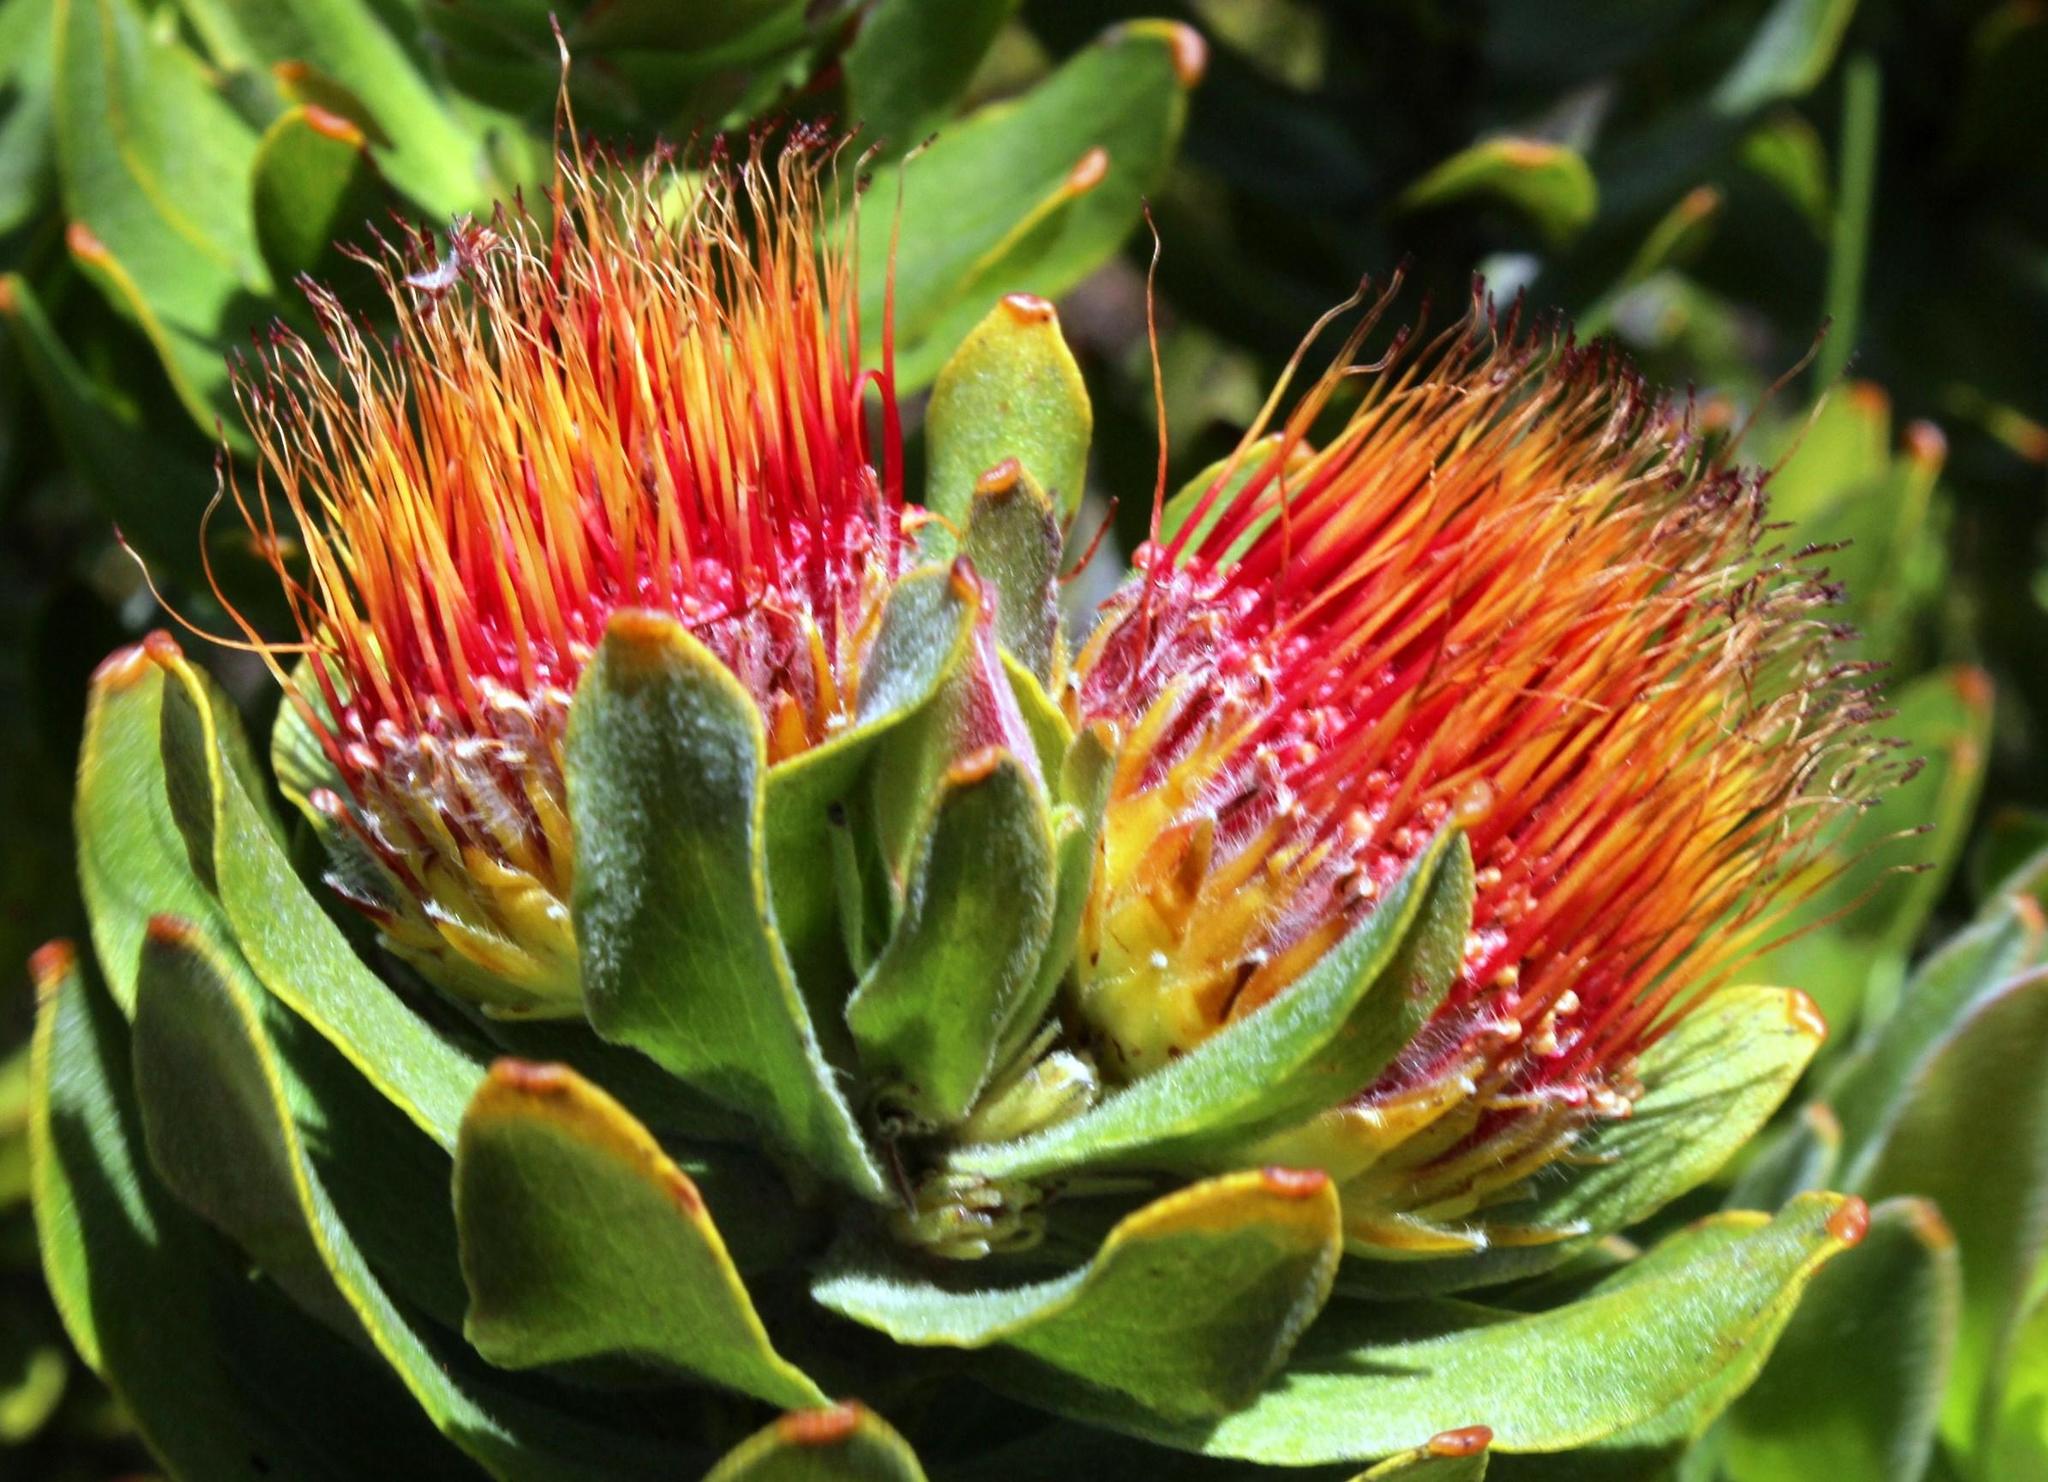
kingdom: Plantae
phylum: Tracheophyta
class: Magnoliopsida
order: Proteales
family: Proteaceae
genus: Leucospermum
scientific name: Leucospermum oleifolium
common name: Matches
